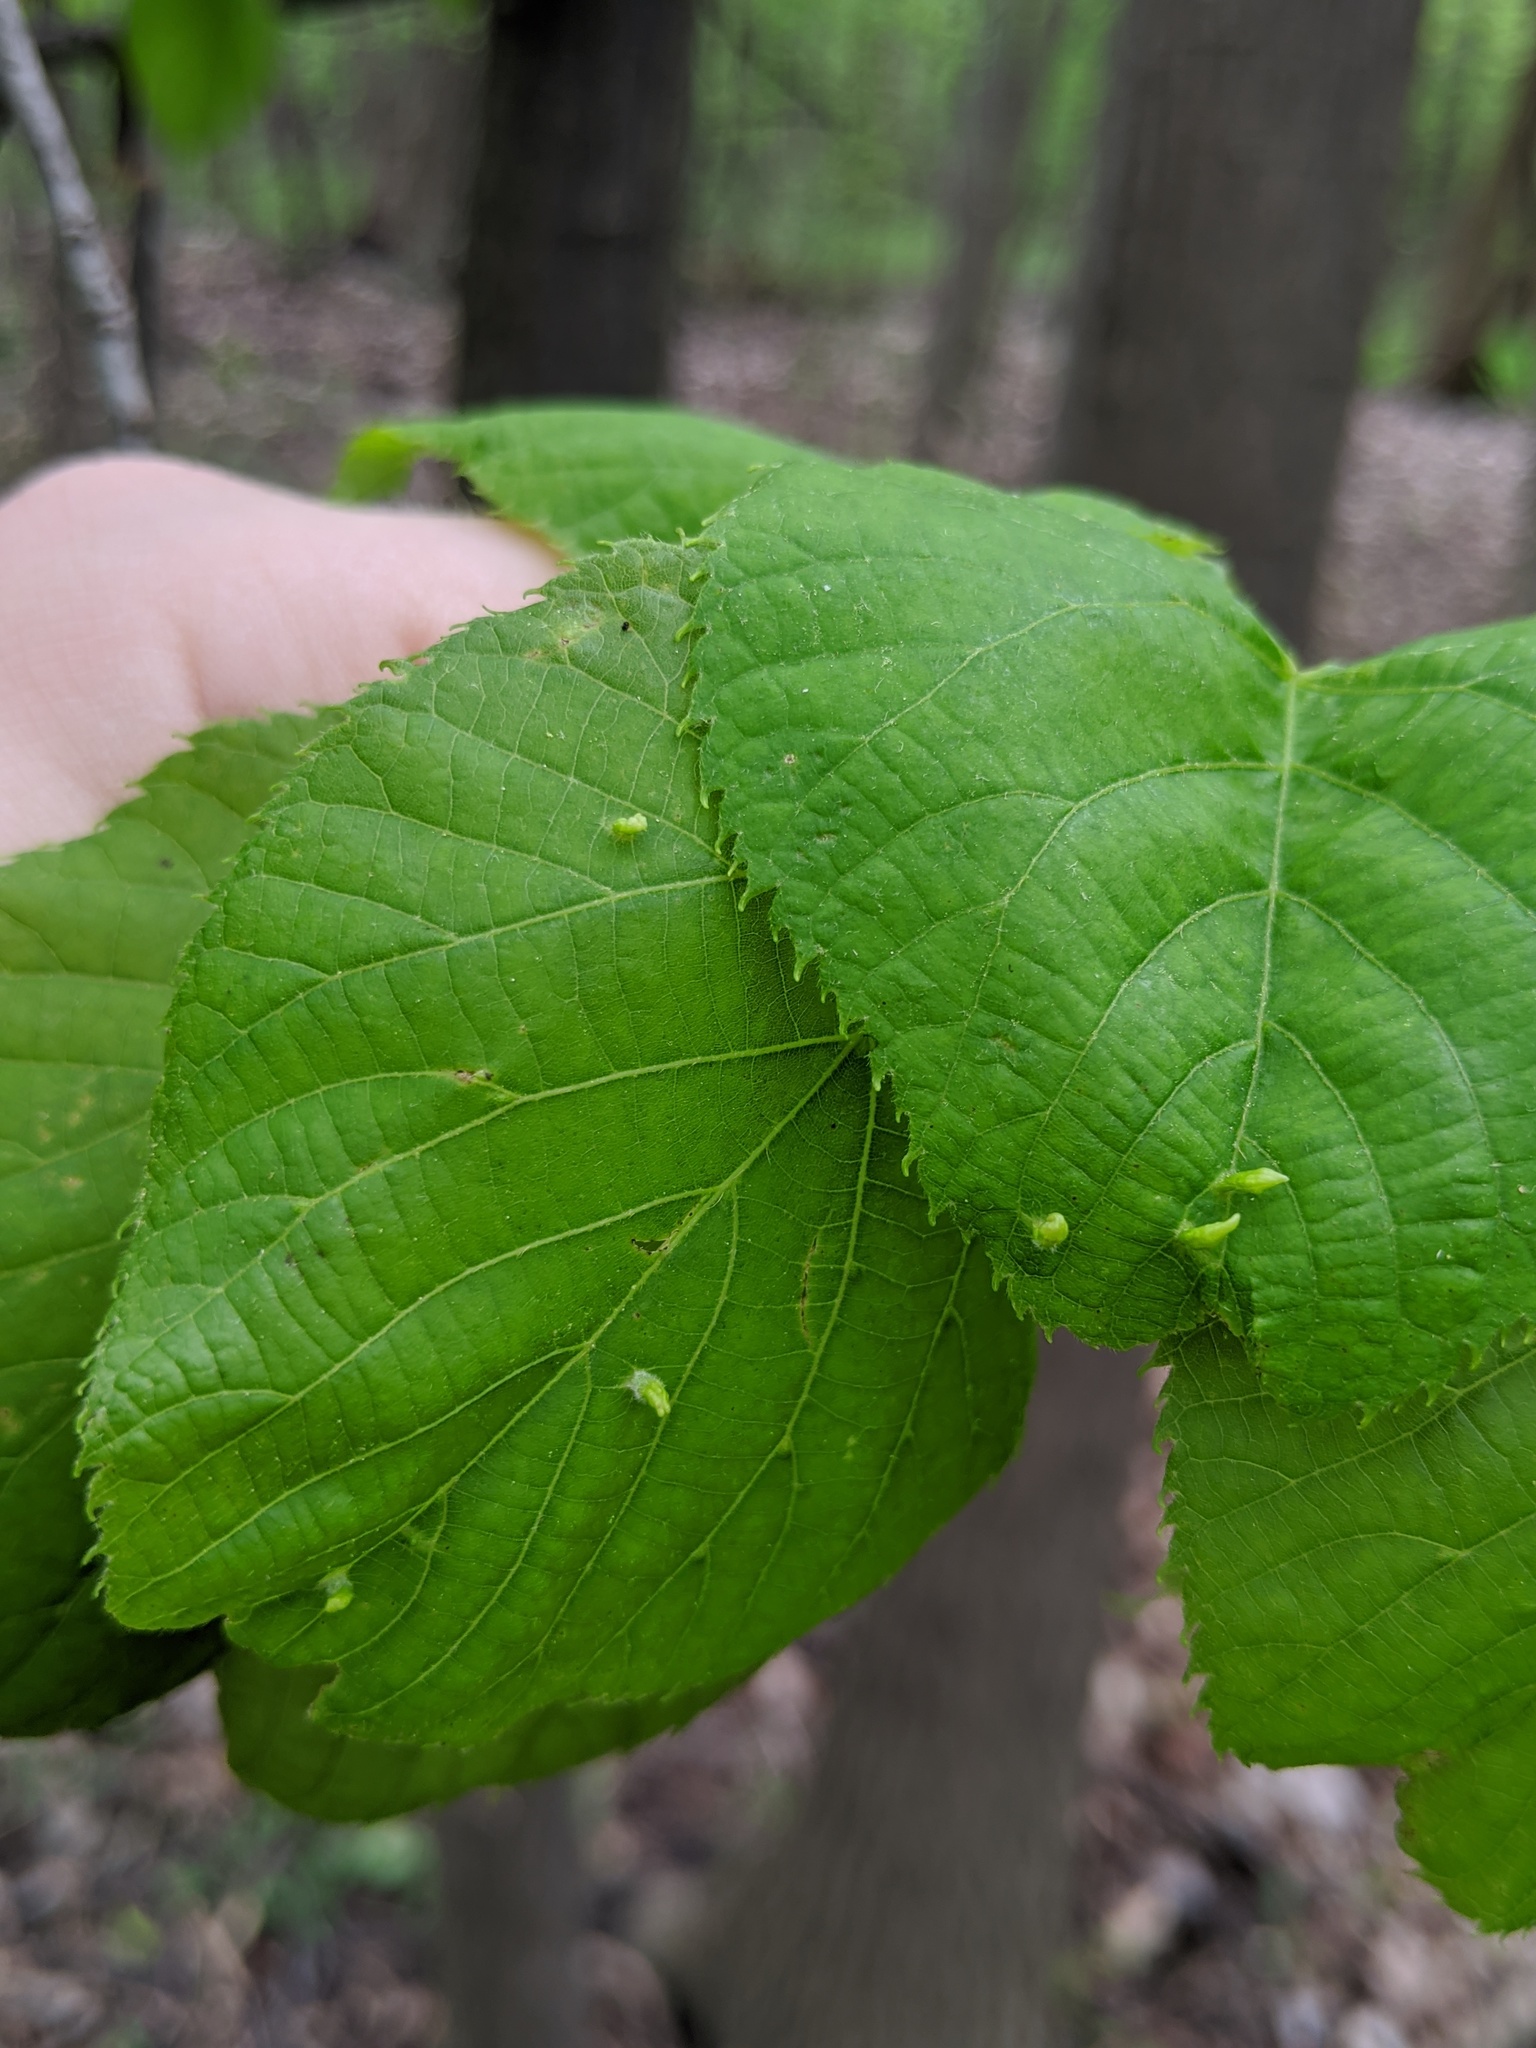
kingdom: Animalia
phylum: Arthropoda
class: Arachnida
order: Trombidiformes
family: Eriophyidae
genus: Eriophyes
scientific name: Eriophyes tiliae
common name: Red nail gall mite
